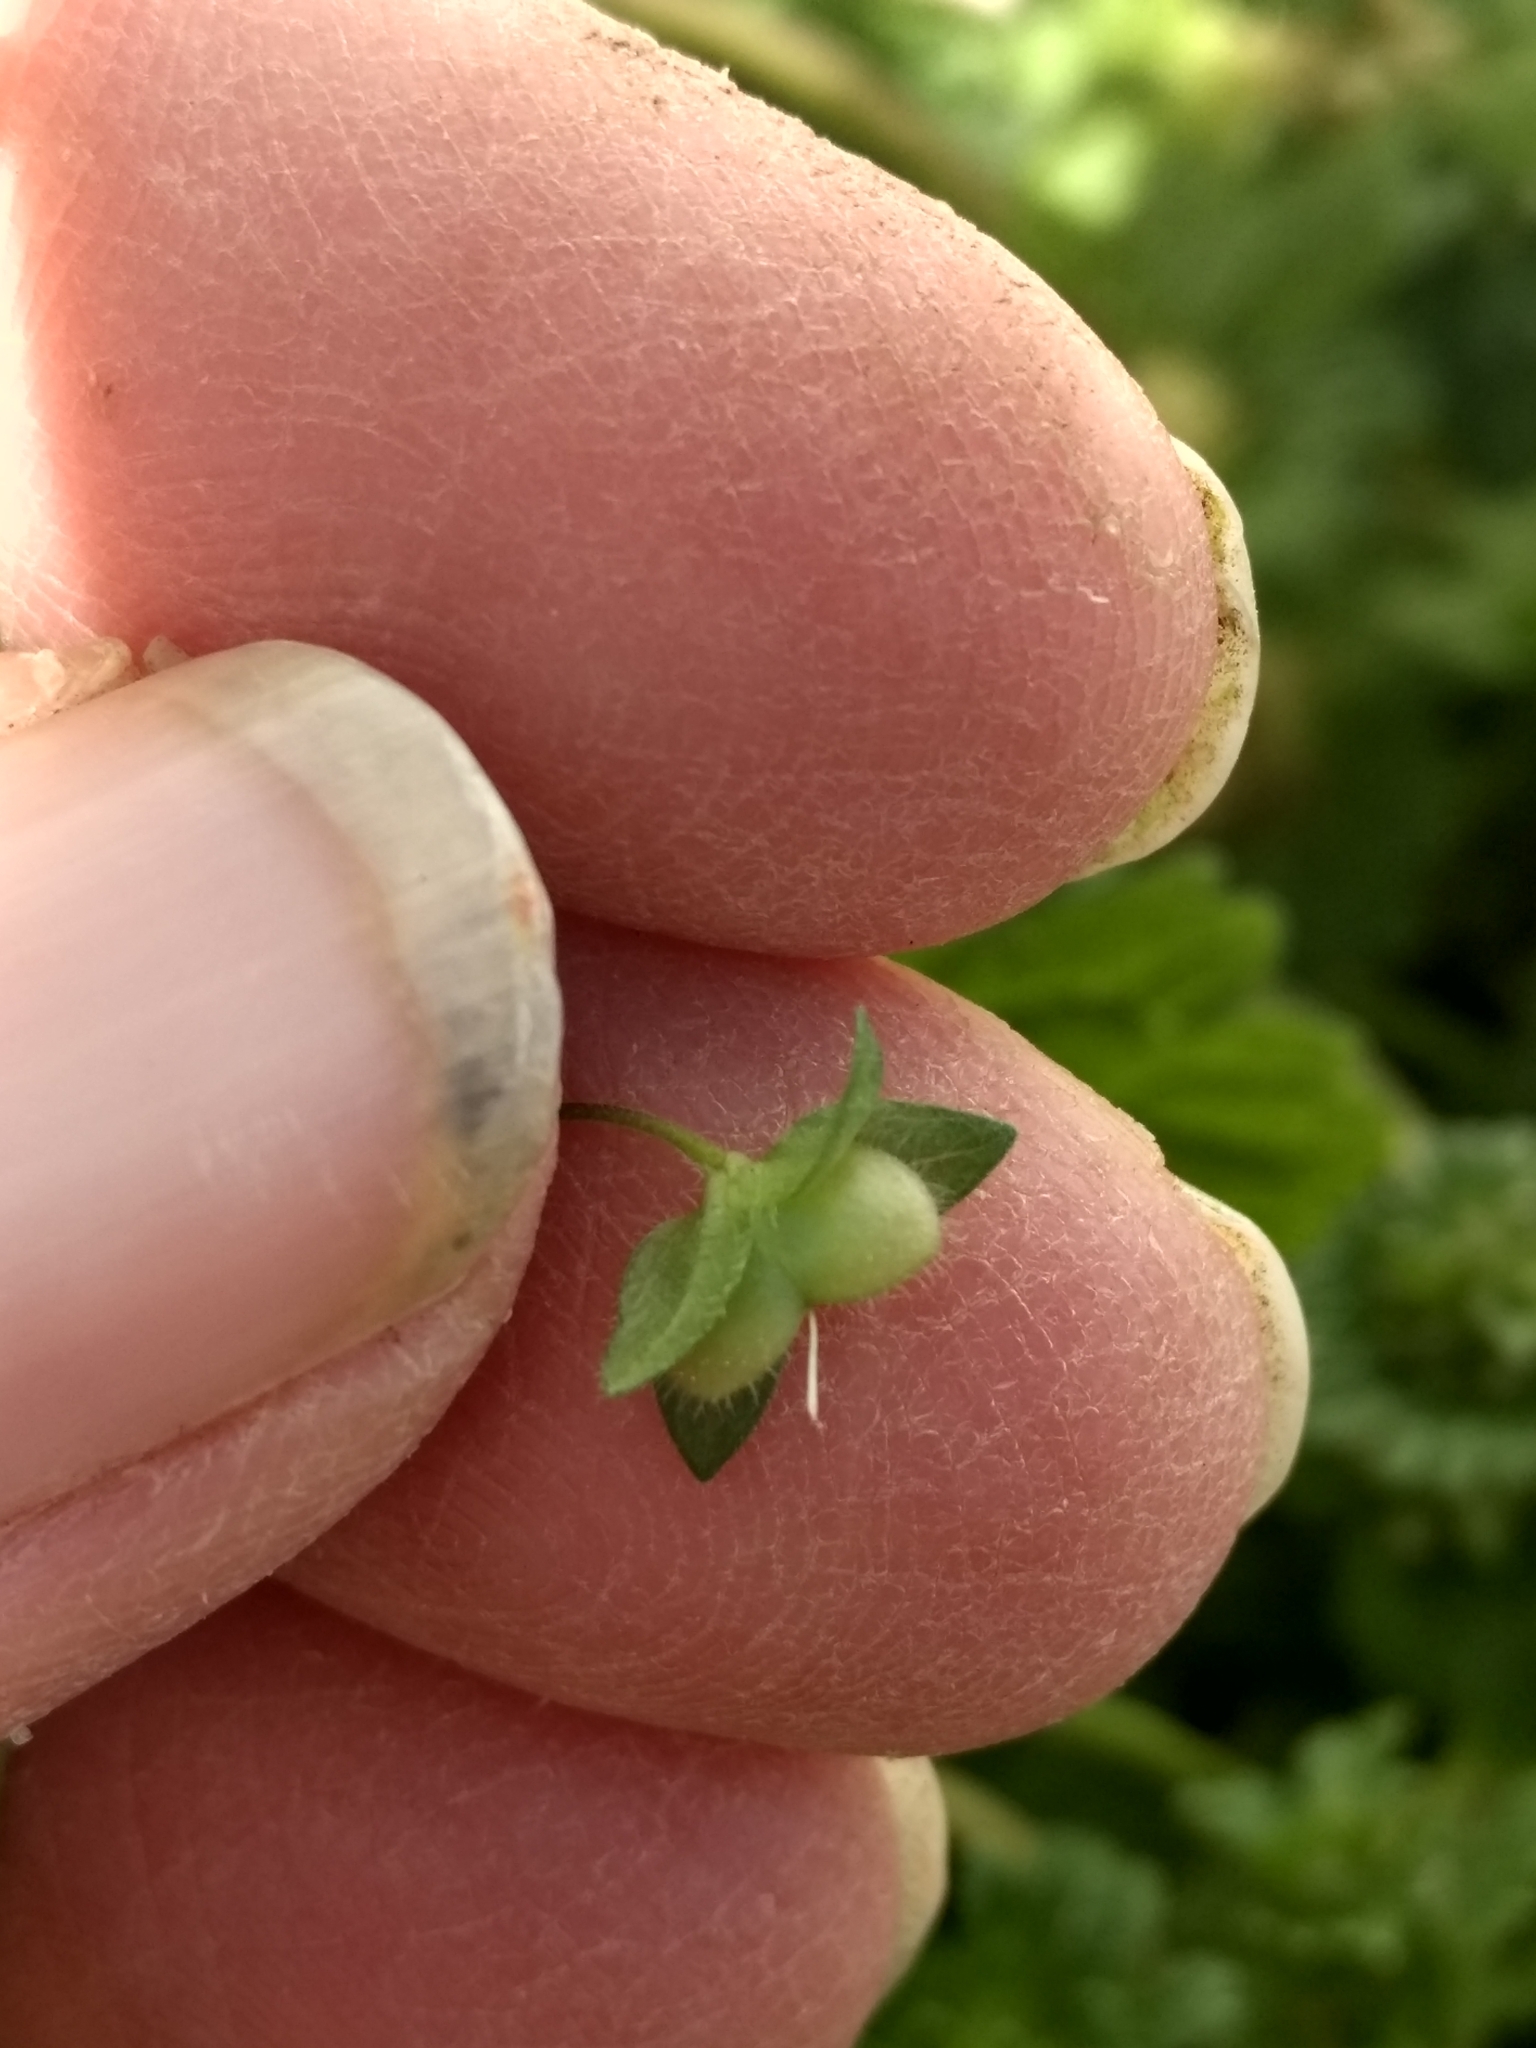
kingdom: Plantae
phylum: Tracheophyta
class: Magnoliopsida
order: Lamiales
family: Plantaginaceae
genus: Veronica
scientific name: Veronica persica
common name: Common field-speedwell
